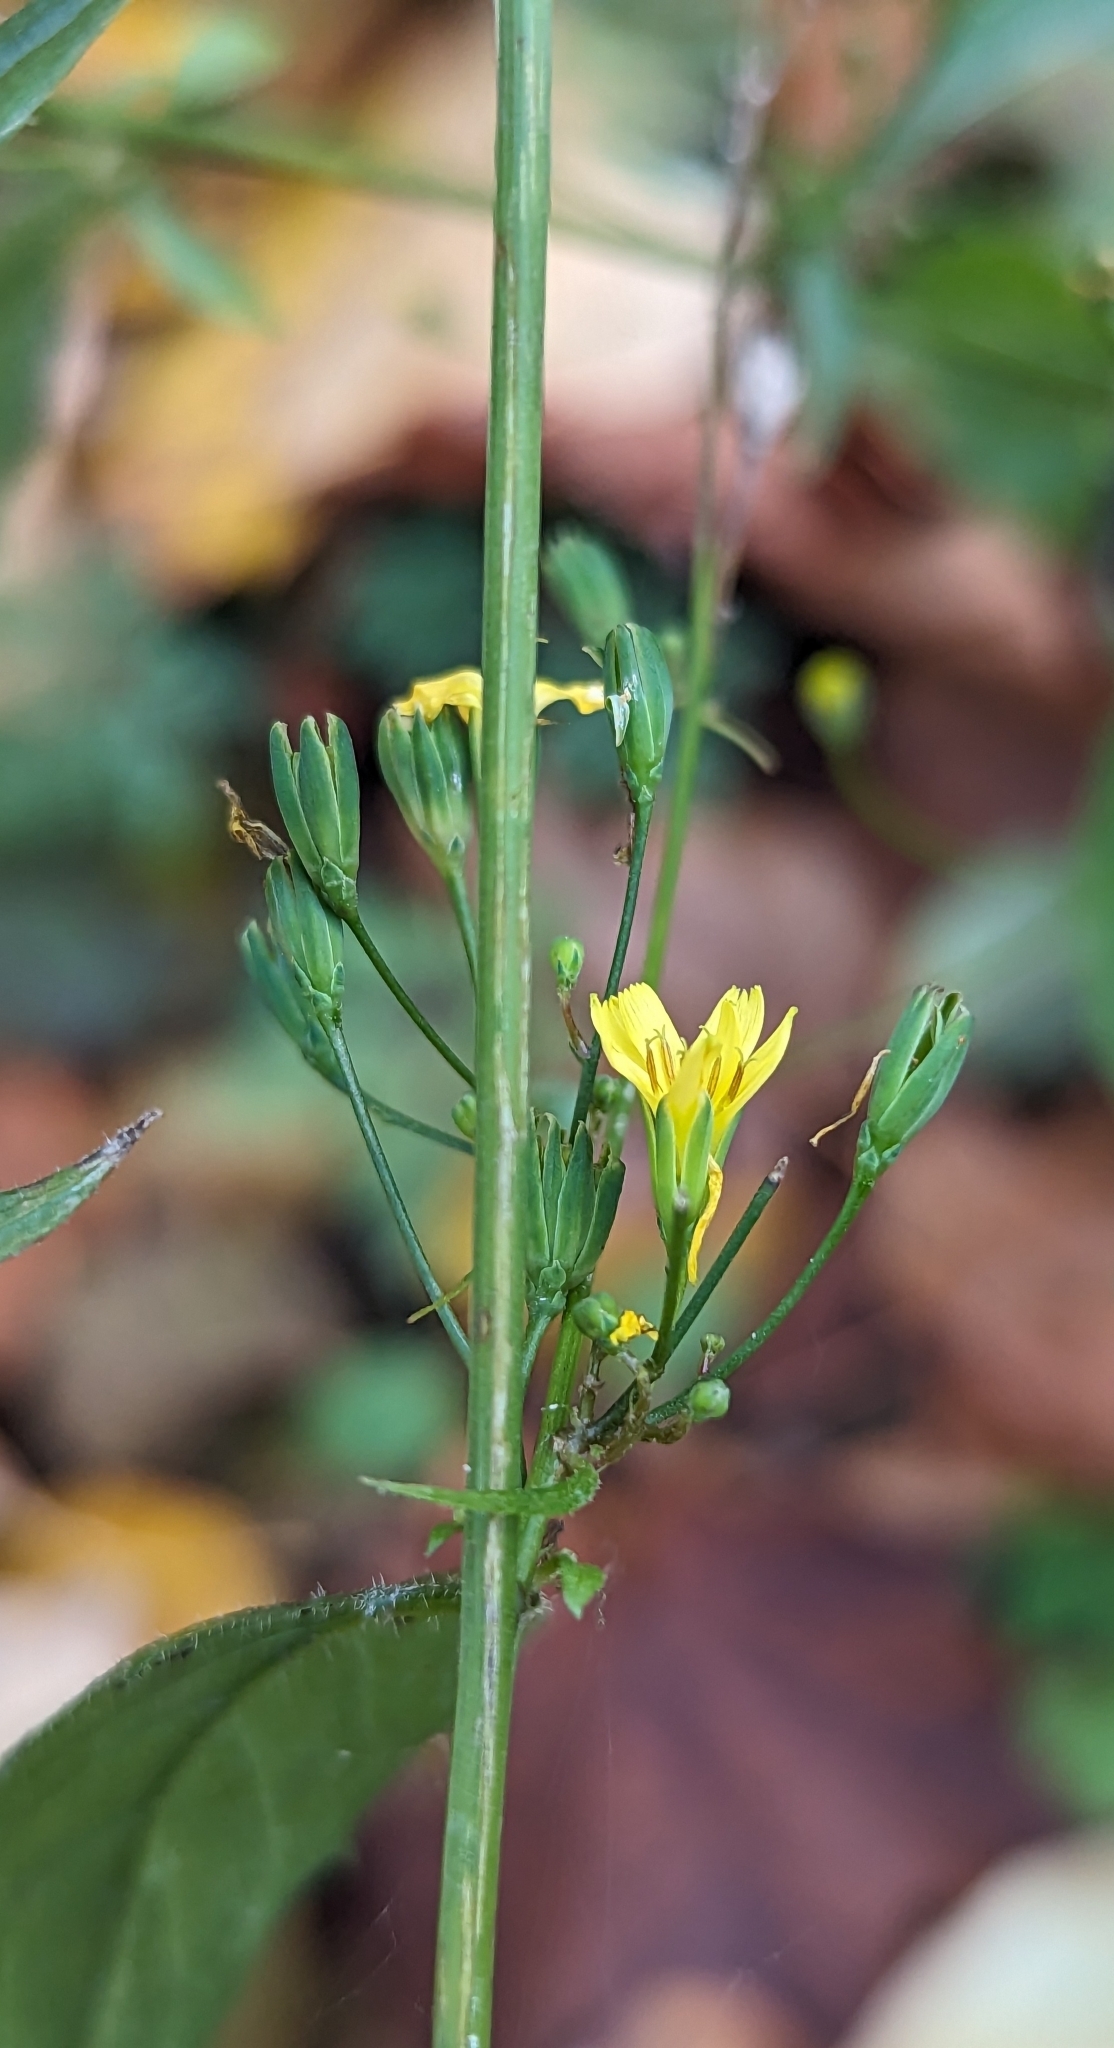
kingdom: Plantae
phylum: Tracheophyta
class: Magnoliopsida
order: Asterales
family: Asteraceae
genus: Lapsana
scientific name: Lapsana communis
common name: Nipplewort
